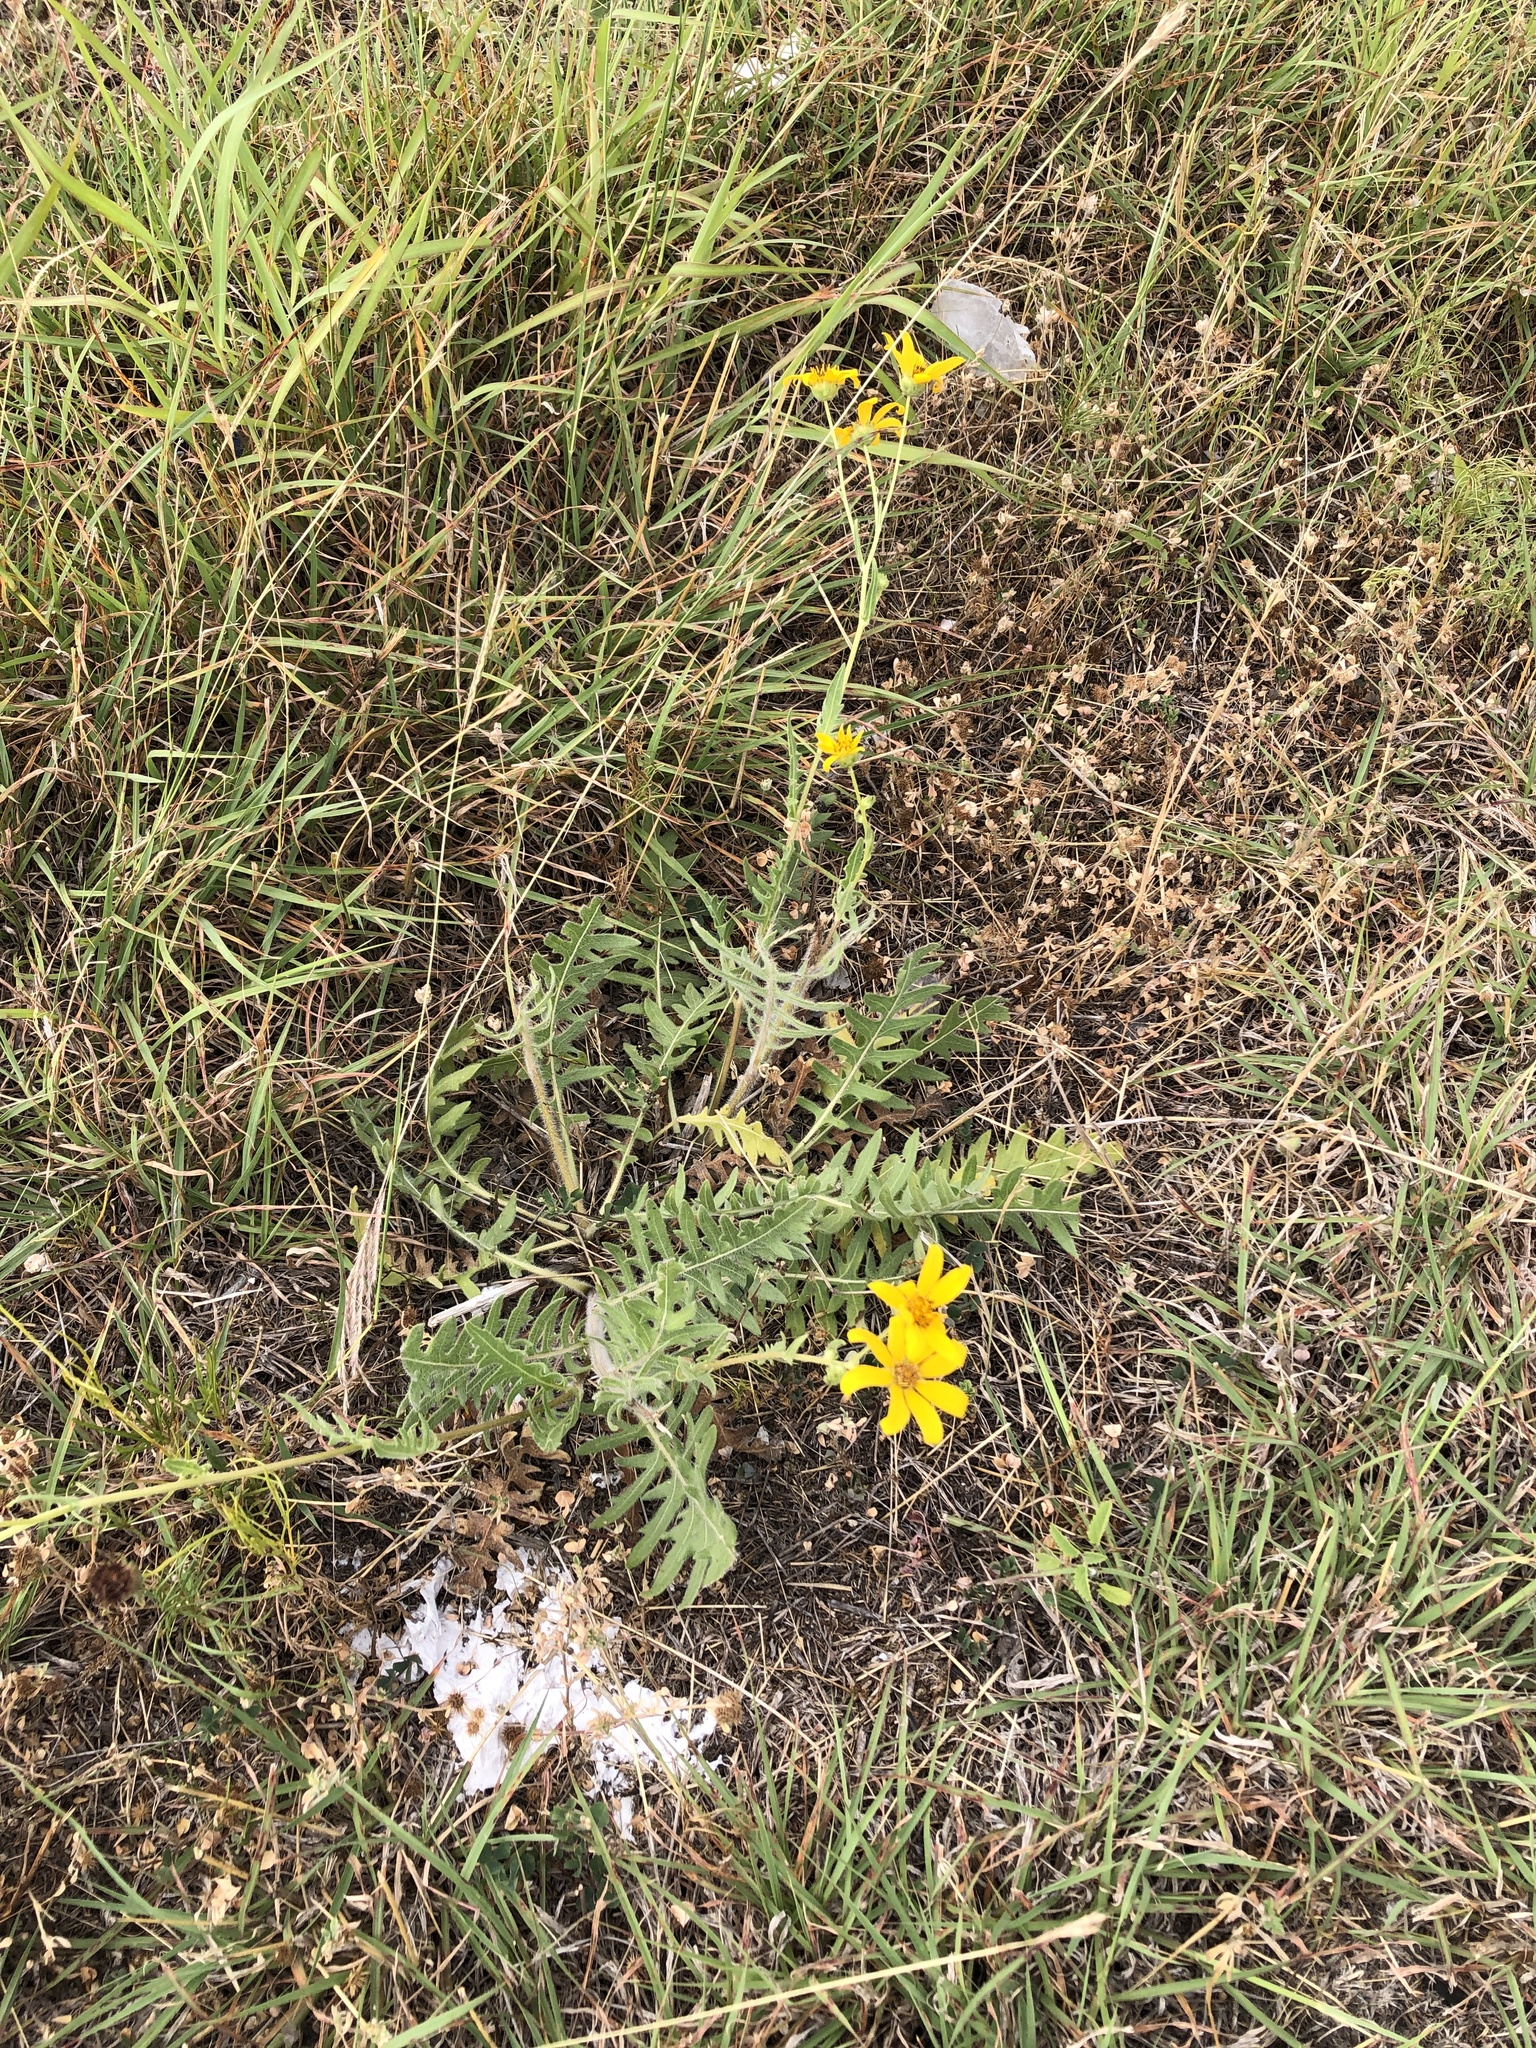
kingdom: Plantae
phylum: Tracheophyta
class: Magnoliopsida
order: Asterales
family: Asteraceae
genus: Engelmannia
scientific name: Engelmannia peristenia
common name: Engelmann's daisy
